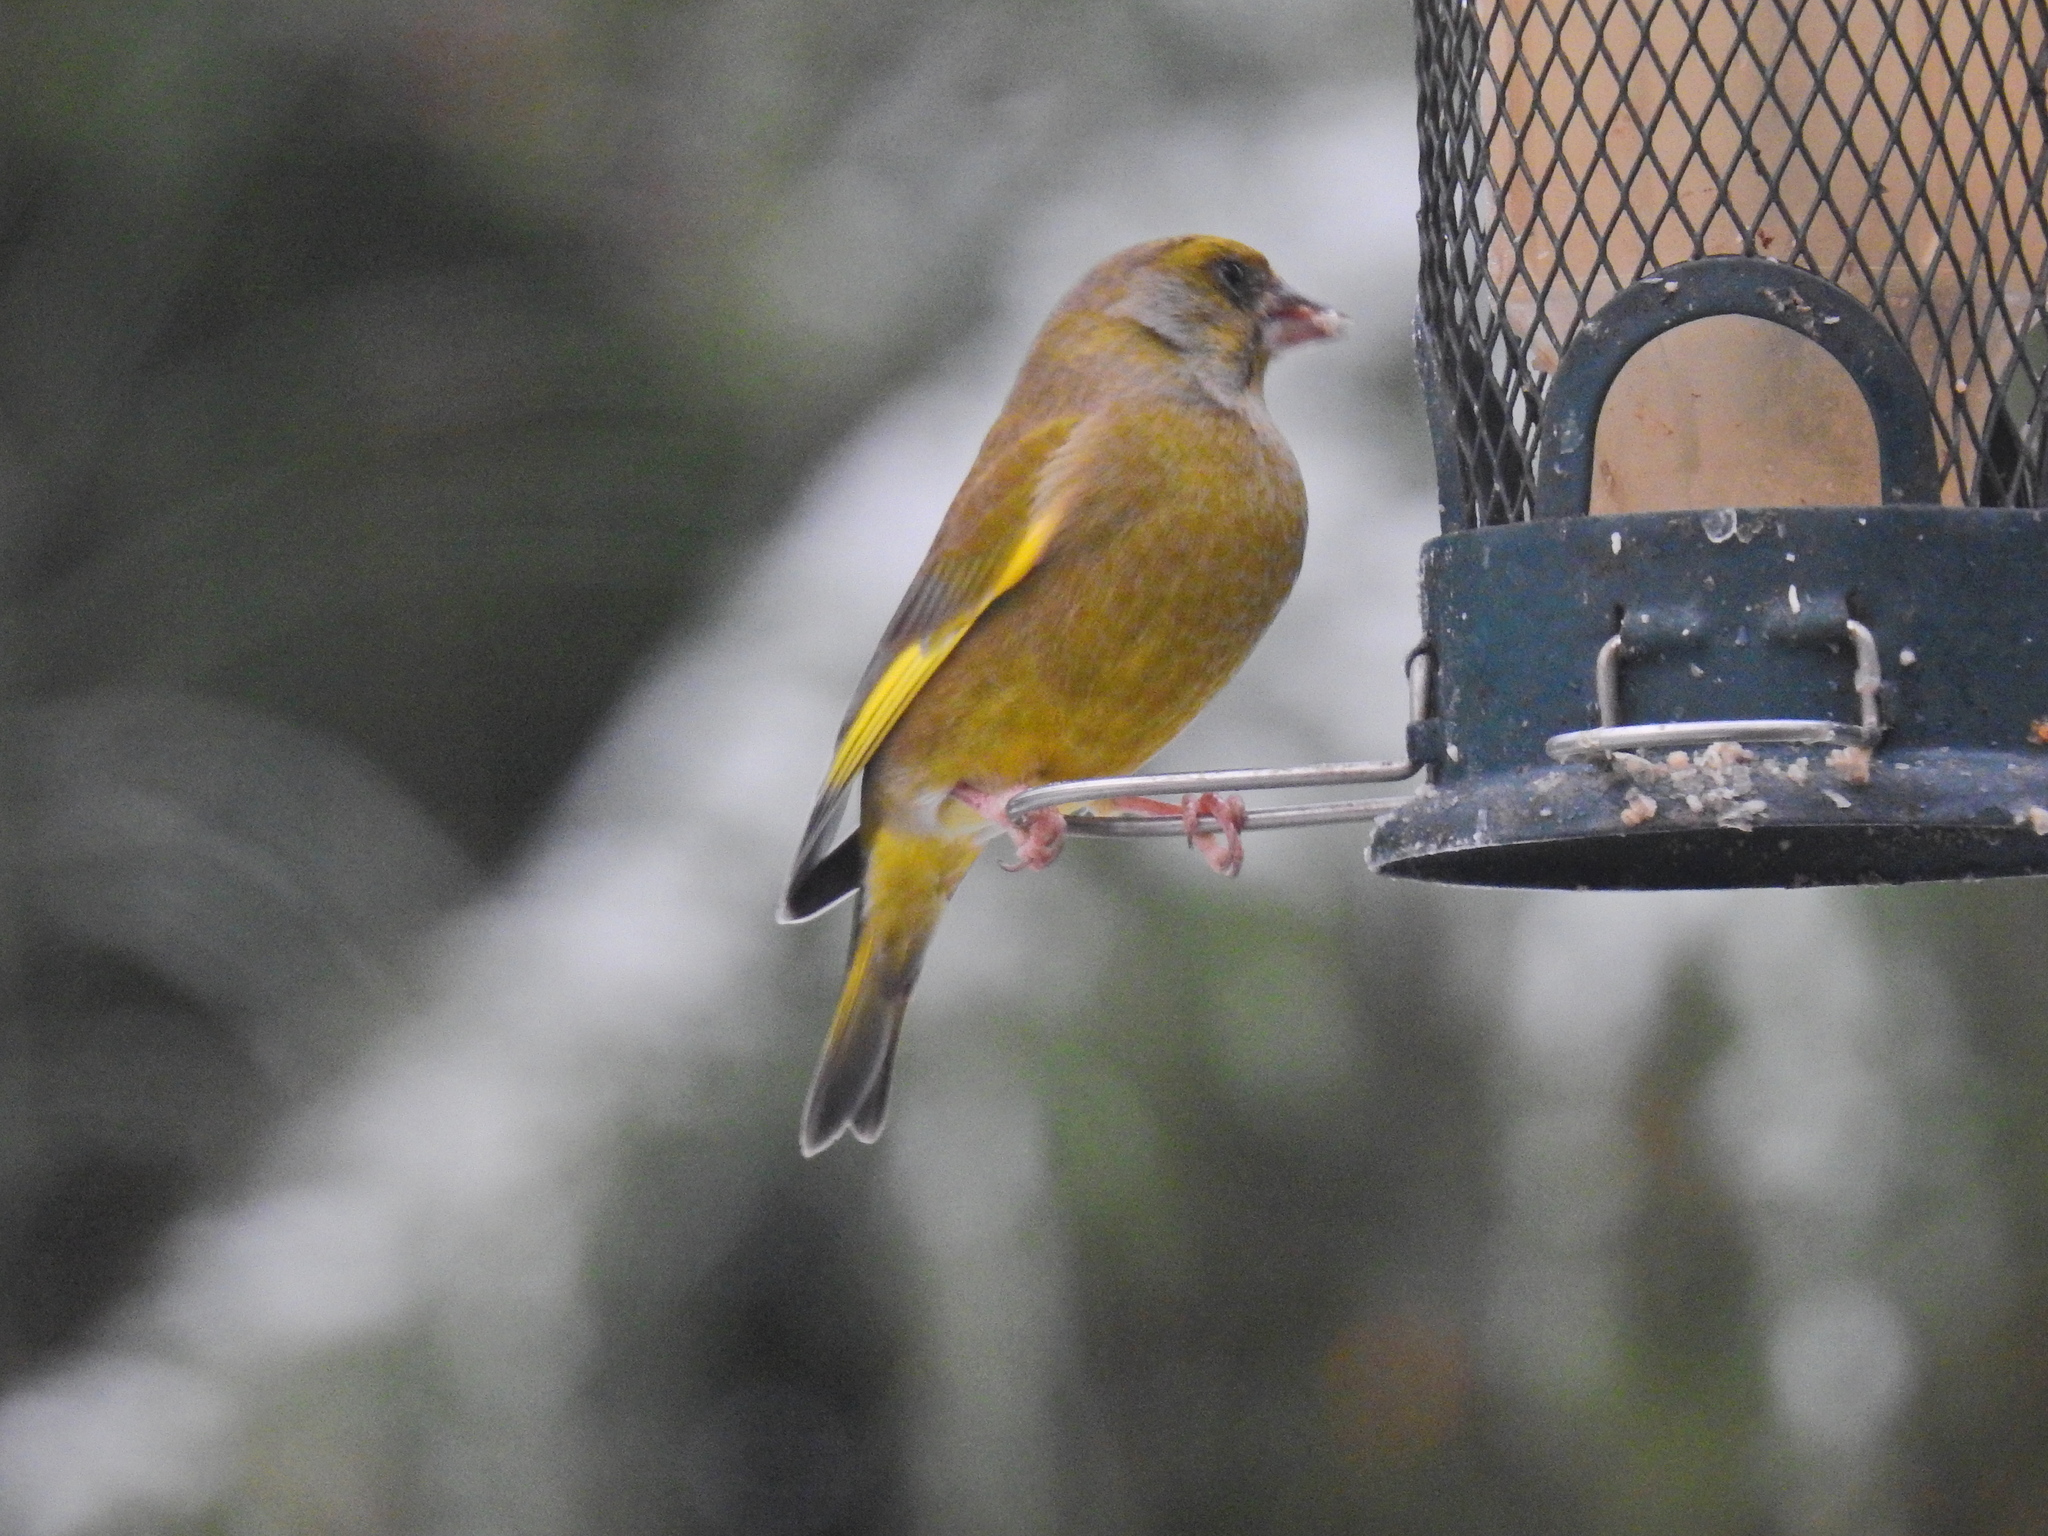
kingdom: Plantae
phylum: Tracheophyta
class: Liliopsida
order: Poales
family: Poaceae
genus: Chloris
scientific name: Chloris chloris
